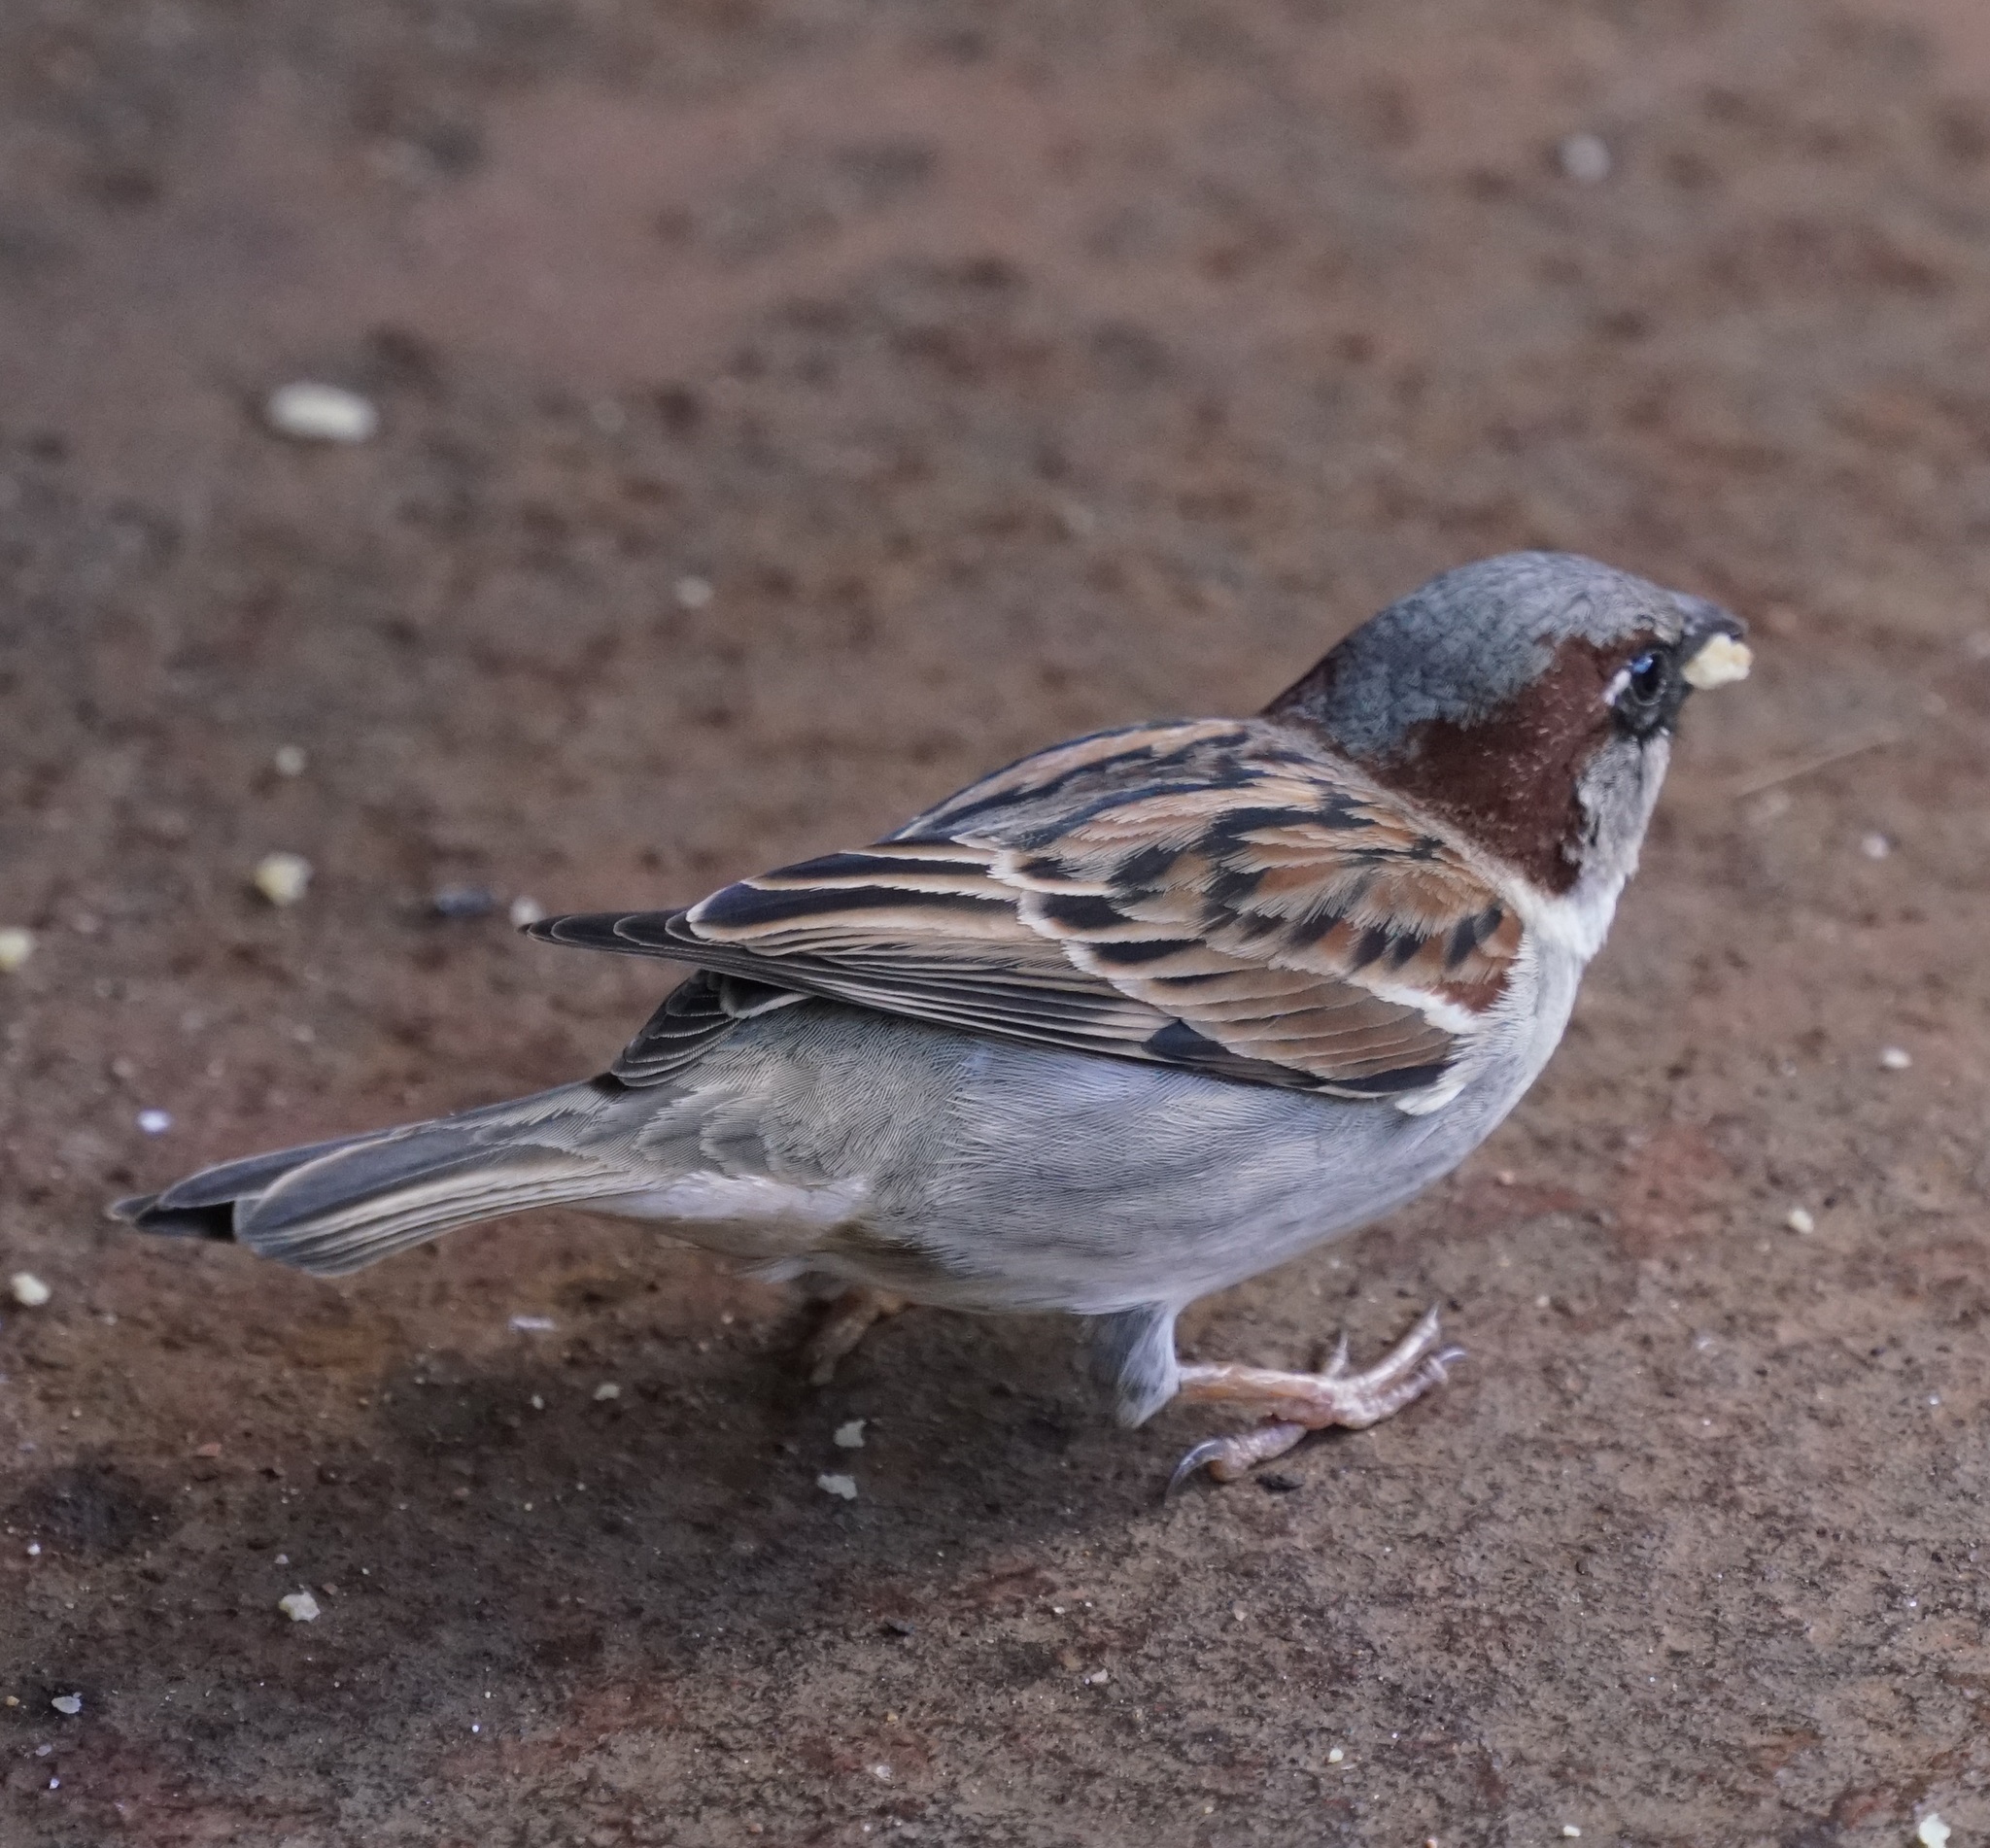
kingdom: Animalia
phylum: Chordata
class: Aves
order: Passeriformes
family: Passeridae
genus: Passer
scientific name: Passer domesticus
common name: House sparrow
